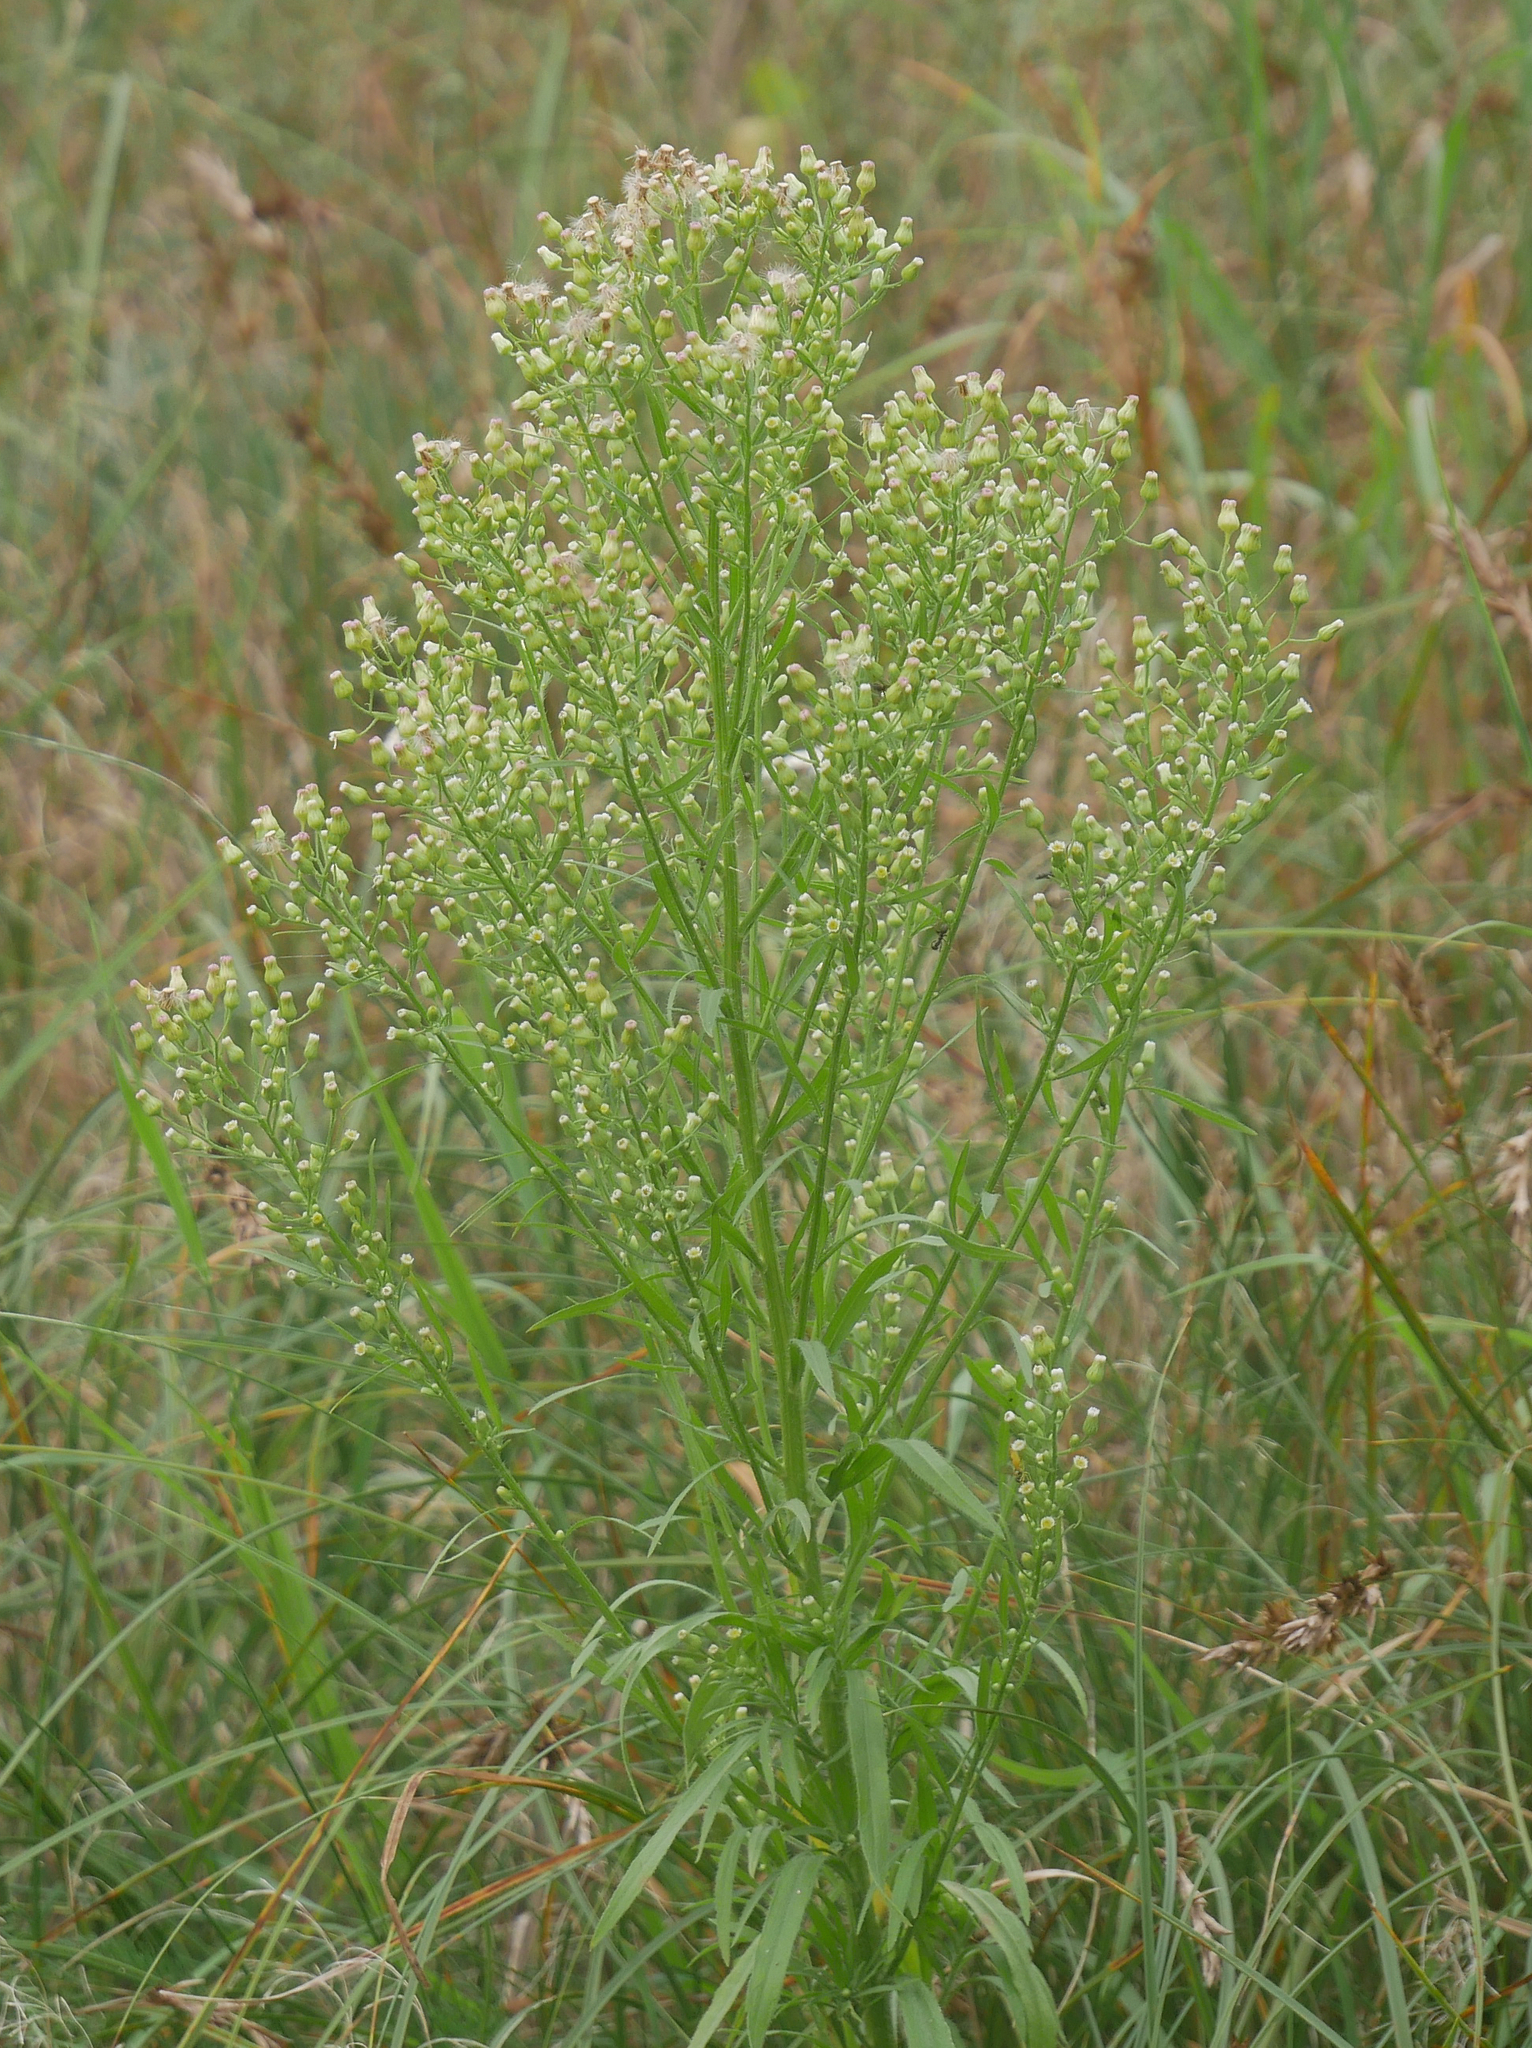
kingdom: Plantae
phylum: Tracheophyta
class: Magnoliopsida
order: Asterales
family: Asteraceae
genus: Erigeron
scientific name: Erigeron canadensis
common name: Canadian fleabane
